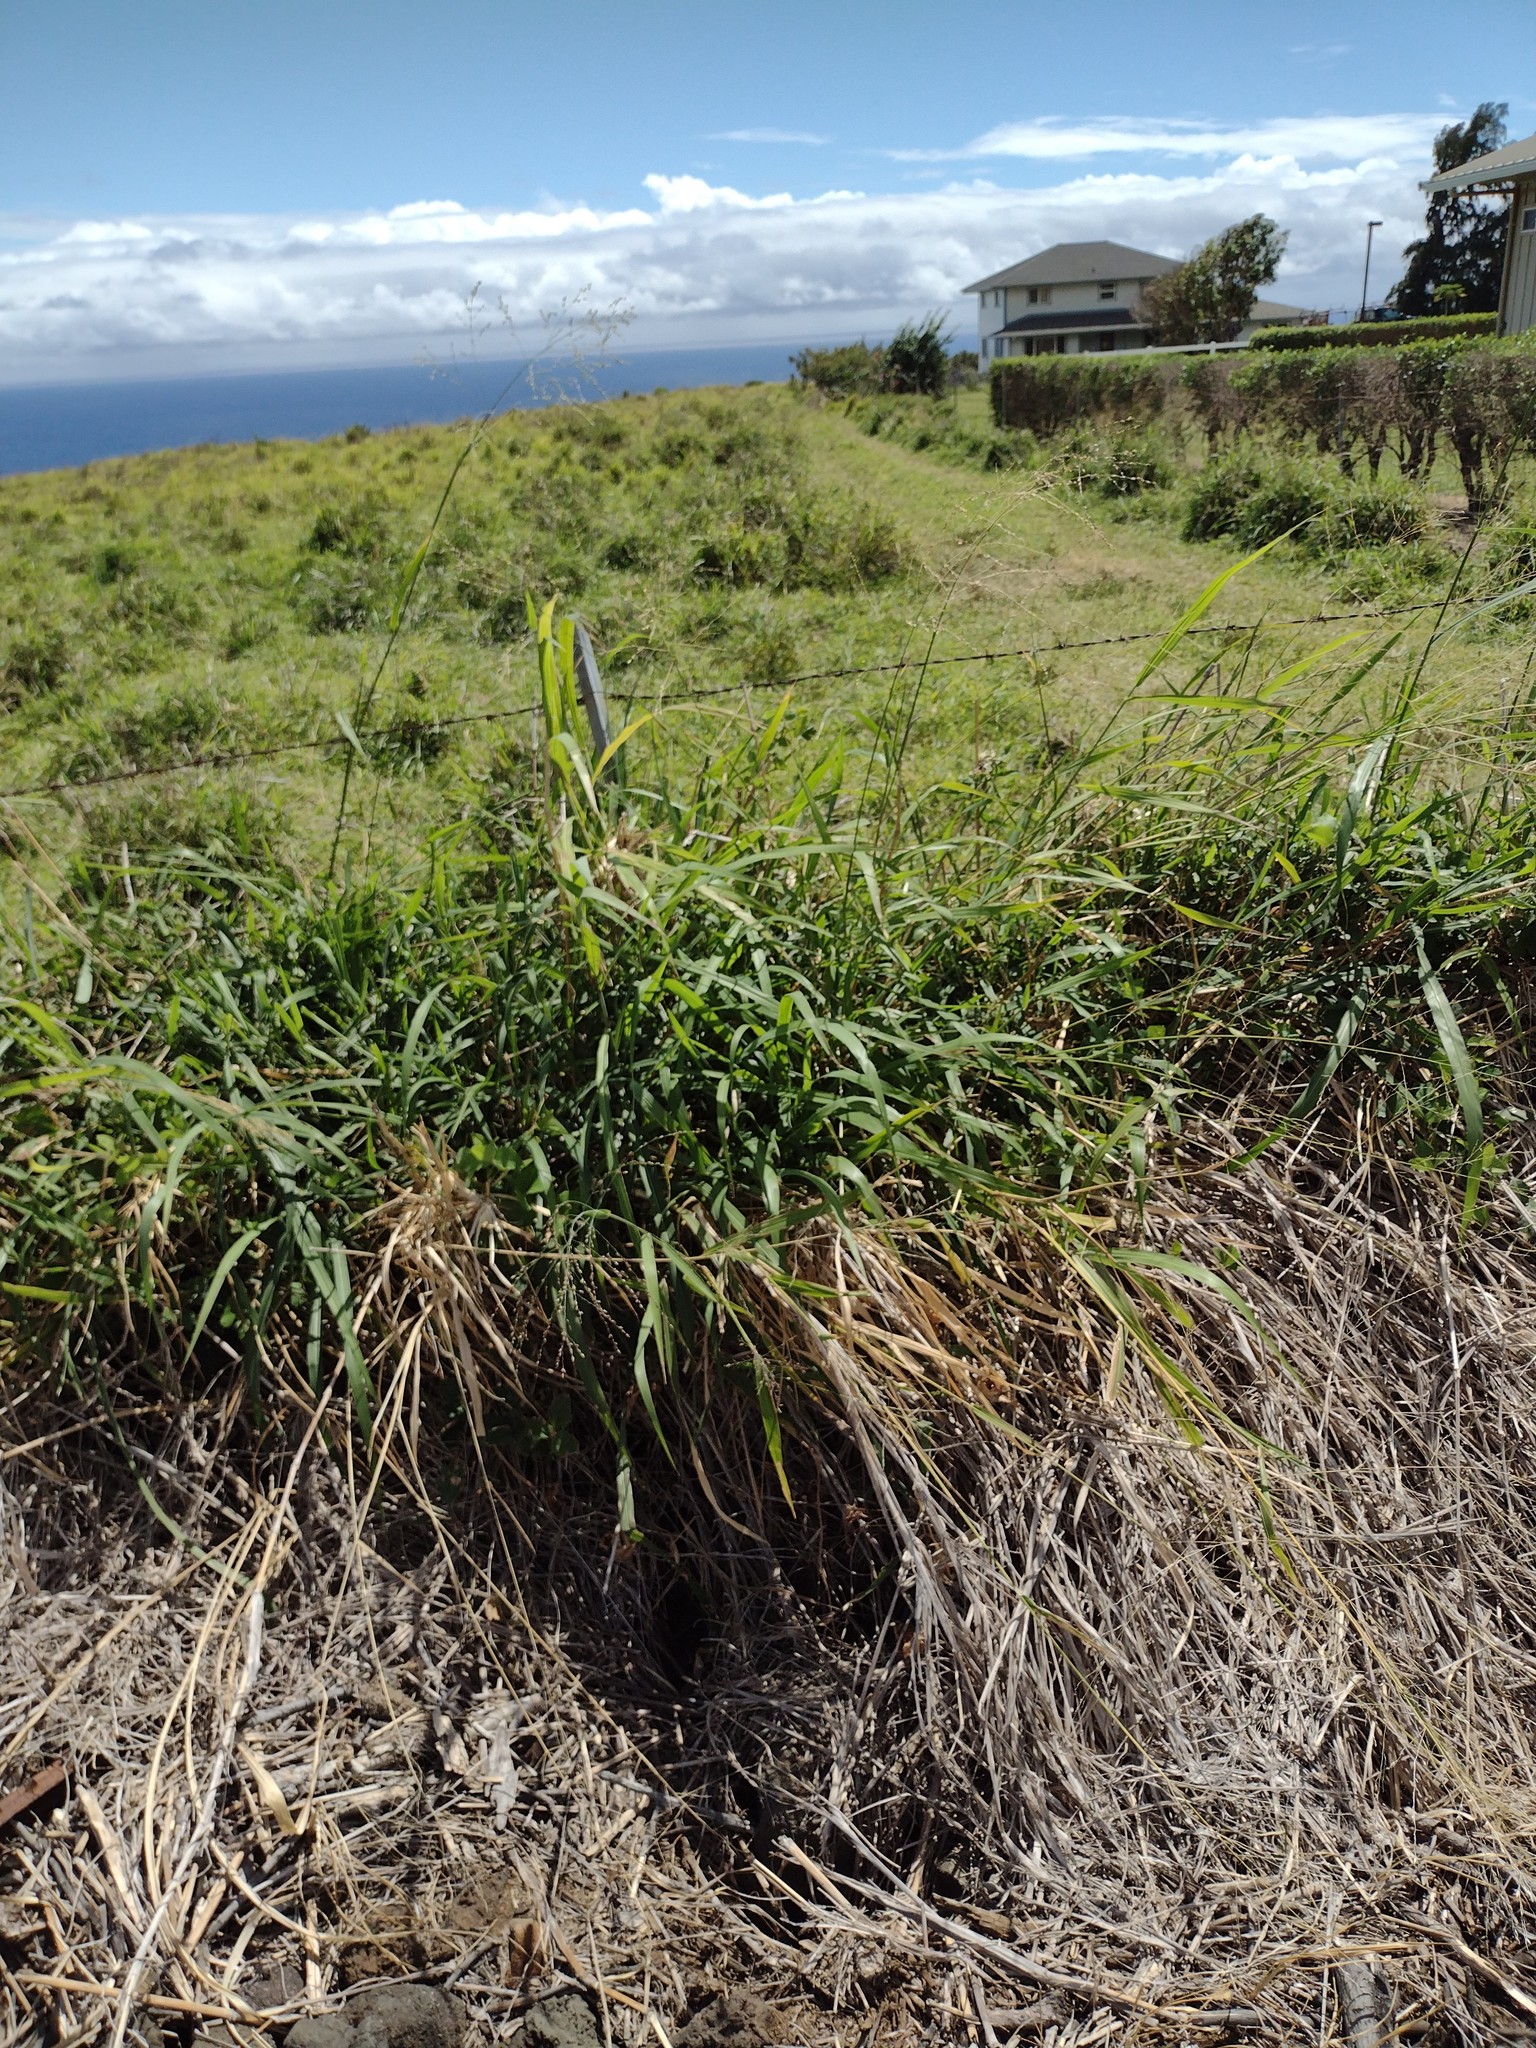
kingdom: Plantae
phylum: Tracheophyta
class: Liliopsida
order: Poales
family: Poaceae
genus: Megathyrsus
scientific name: Megathyrsus maximus
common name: Guineagrass
